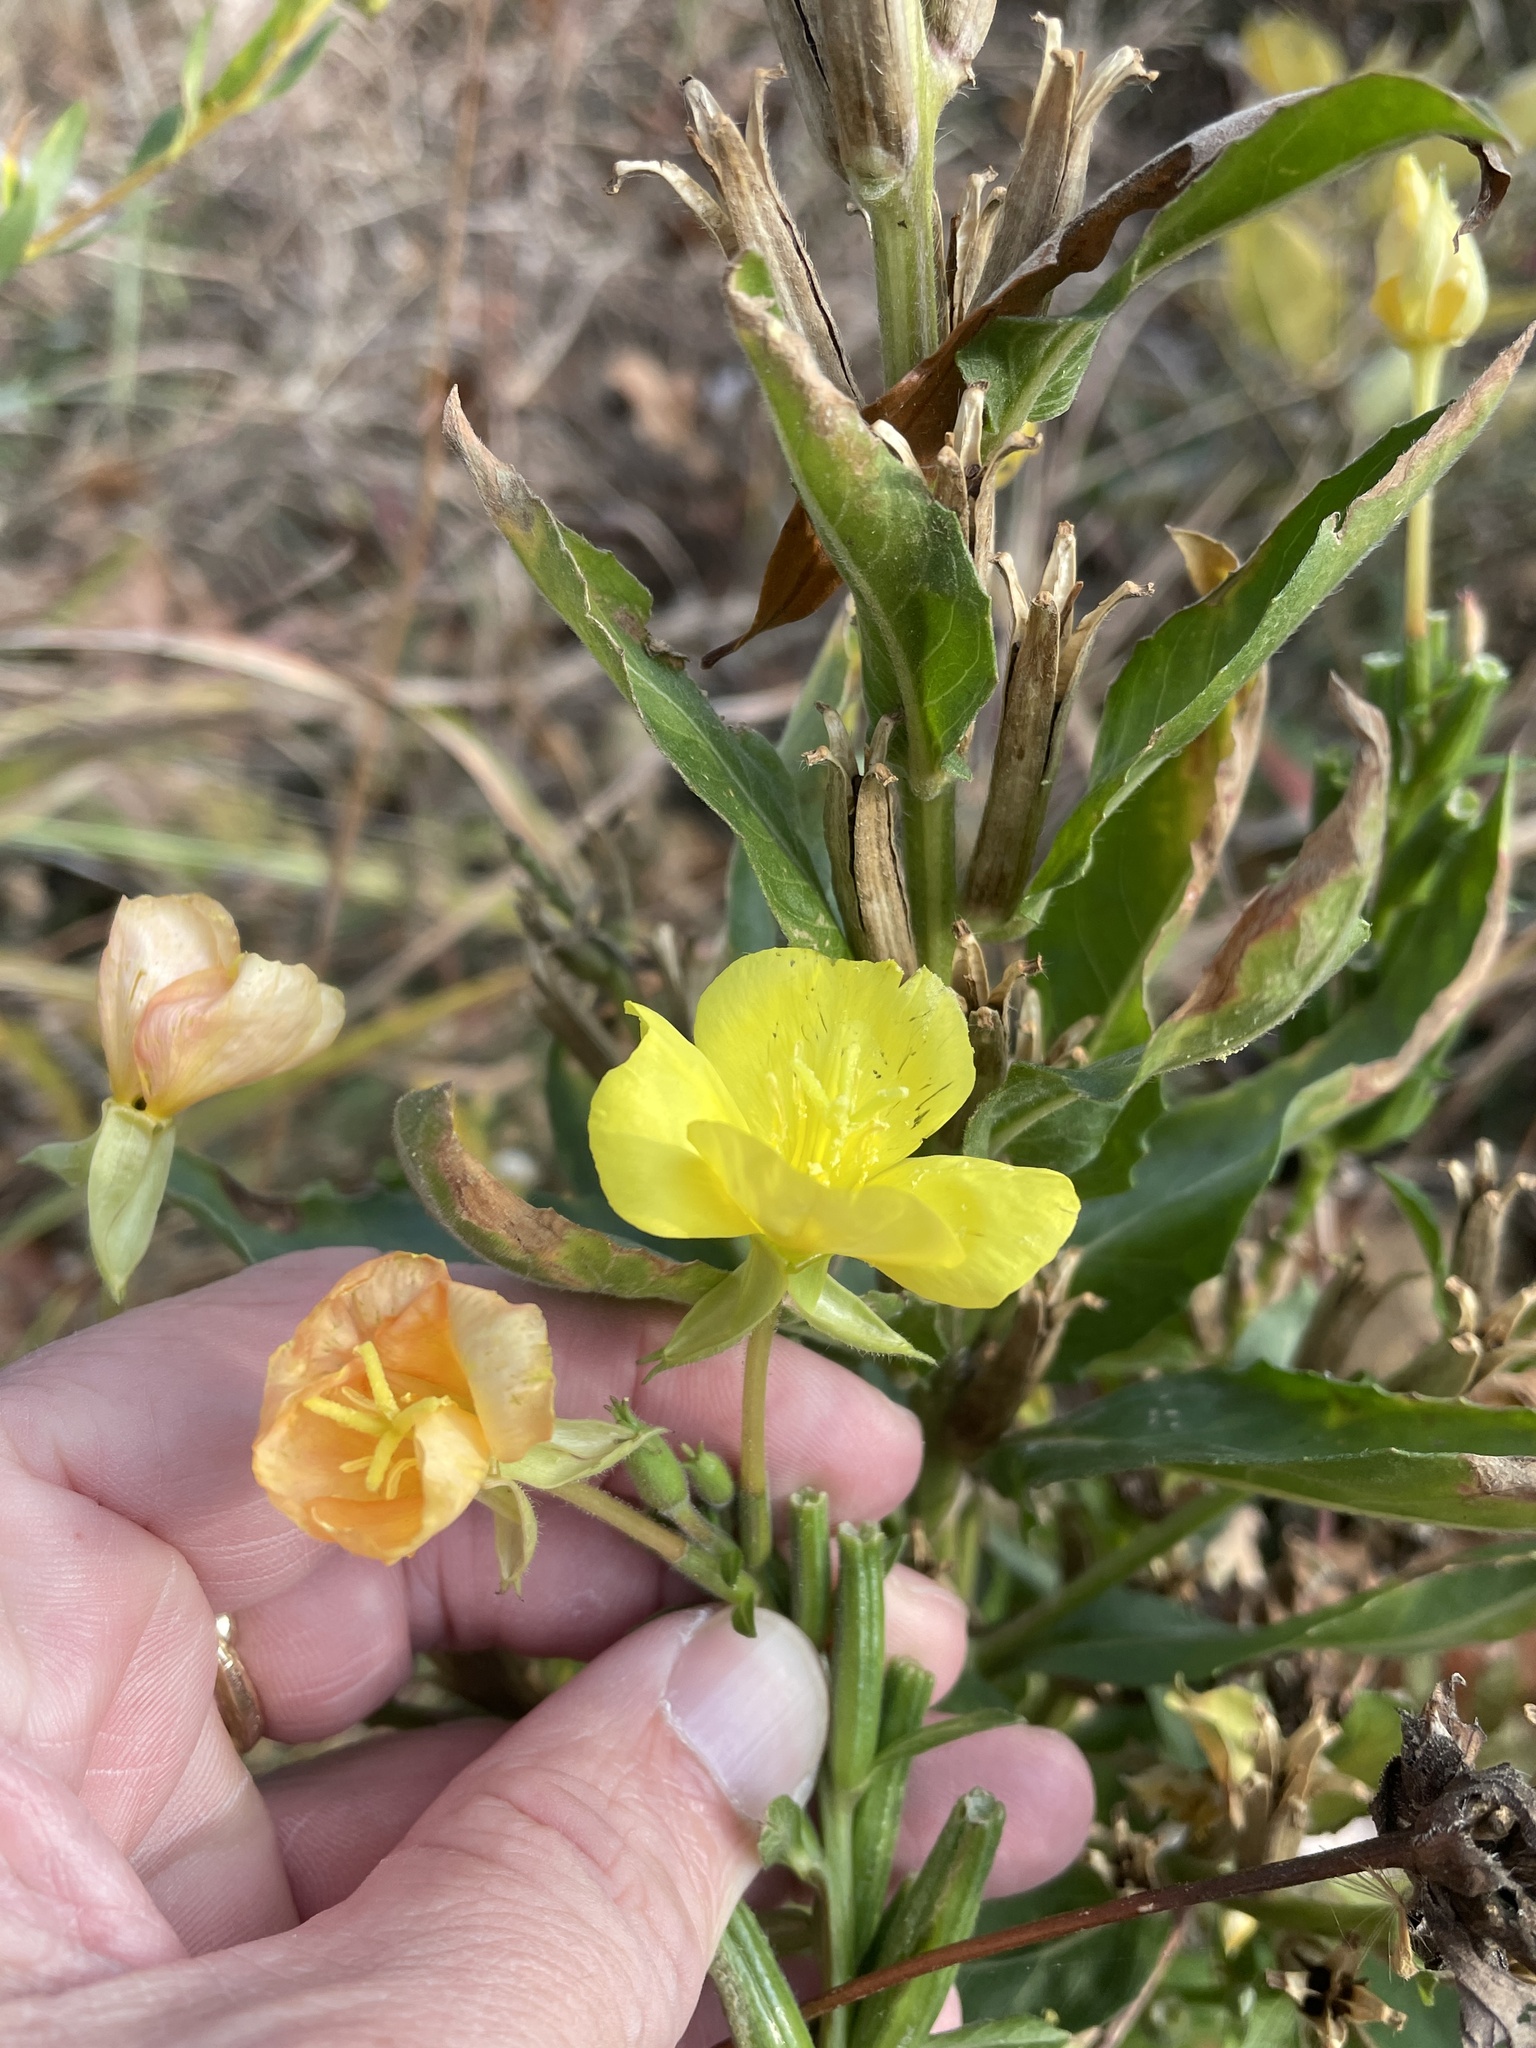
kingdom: Plantae
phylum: Tracheophyta
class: Magnoliopsida
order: Myrtales
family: Onagraceae
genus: Oenothera
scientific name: Oenothera biennis
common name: Common evening-primrose
